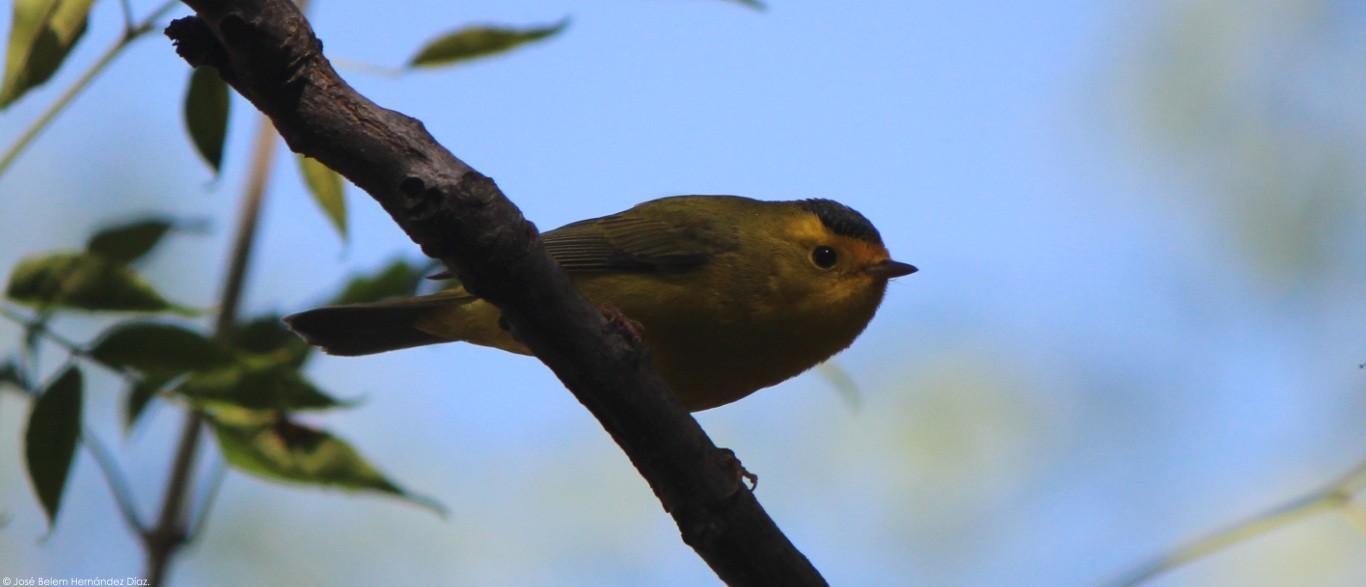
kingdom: Animalia
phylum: Chordata
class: Aves
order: Passeriformes
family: Parulidae
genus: Cardellina
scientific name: Cardellina pusilla
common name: Wilson's warbler
